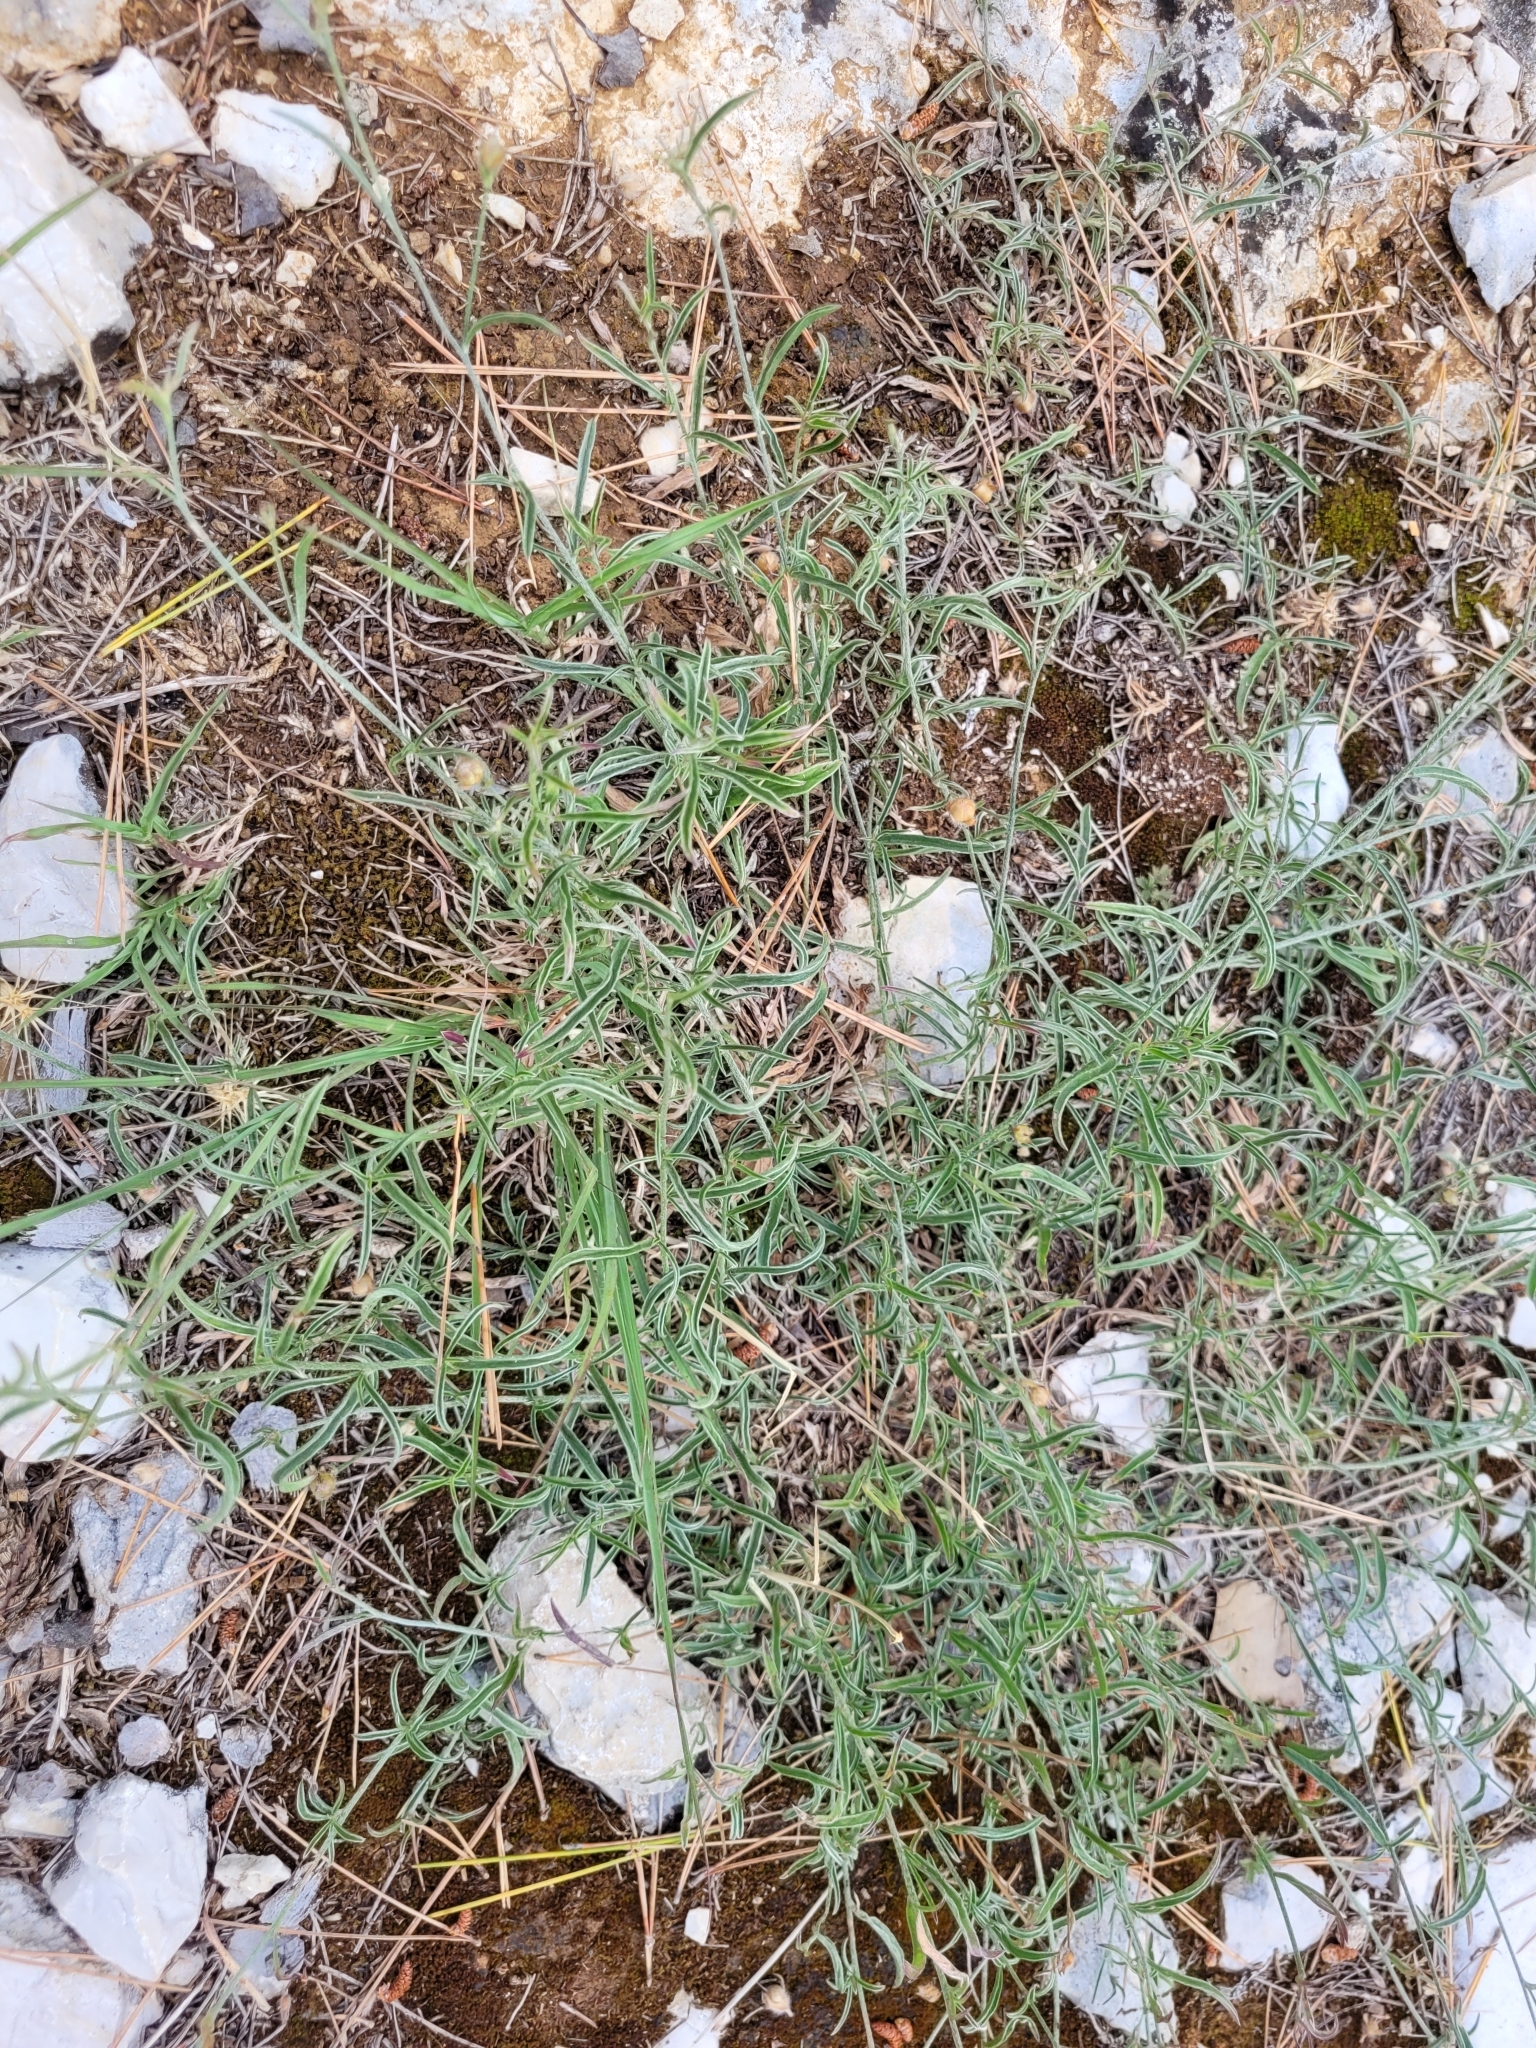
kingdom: Plantae
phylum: Tracheophyta
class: Magnoliopsida
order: Solanales
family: Convolvulaceae
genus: Convolvulus
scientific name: Convolvulus cantabrica
